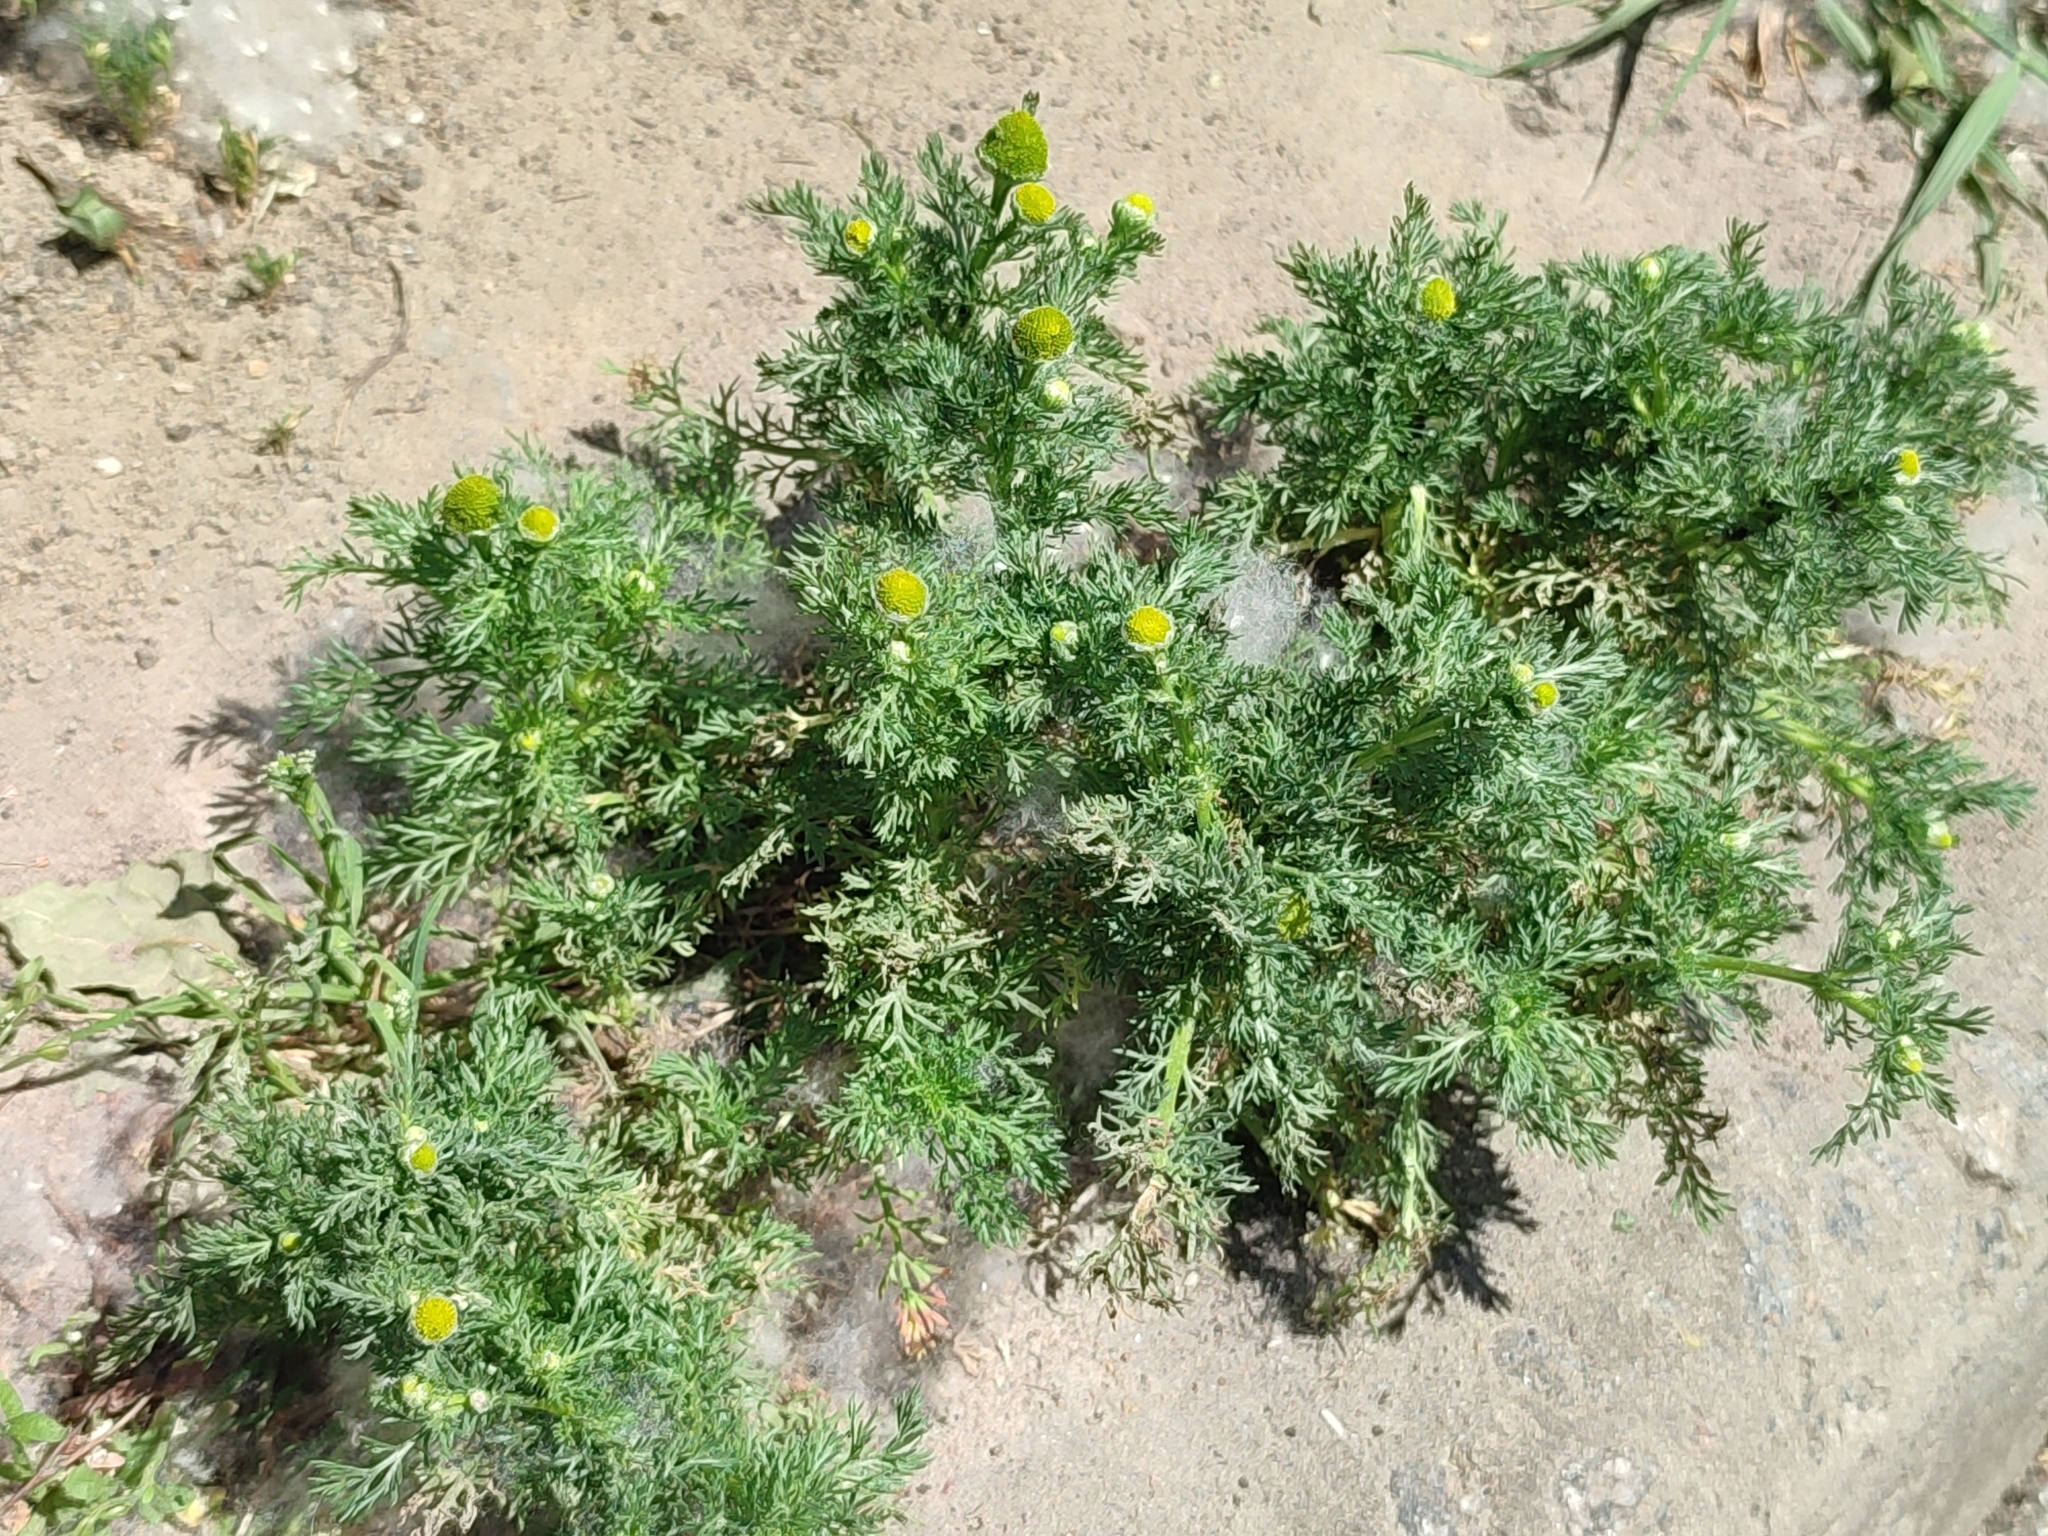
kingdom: Plantae
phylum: Tracheophyta
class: Magnoliopsida
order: Asterales
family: Asteraceae
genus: Matricaria
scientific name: Matricaria discoidea
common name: Disc mayweed
